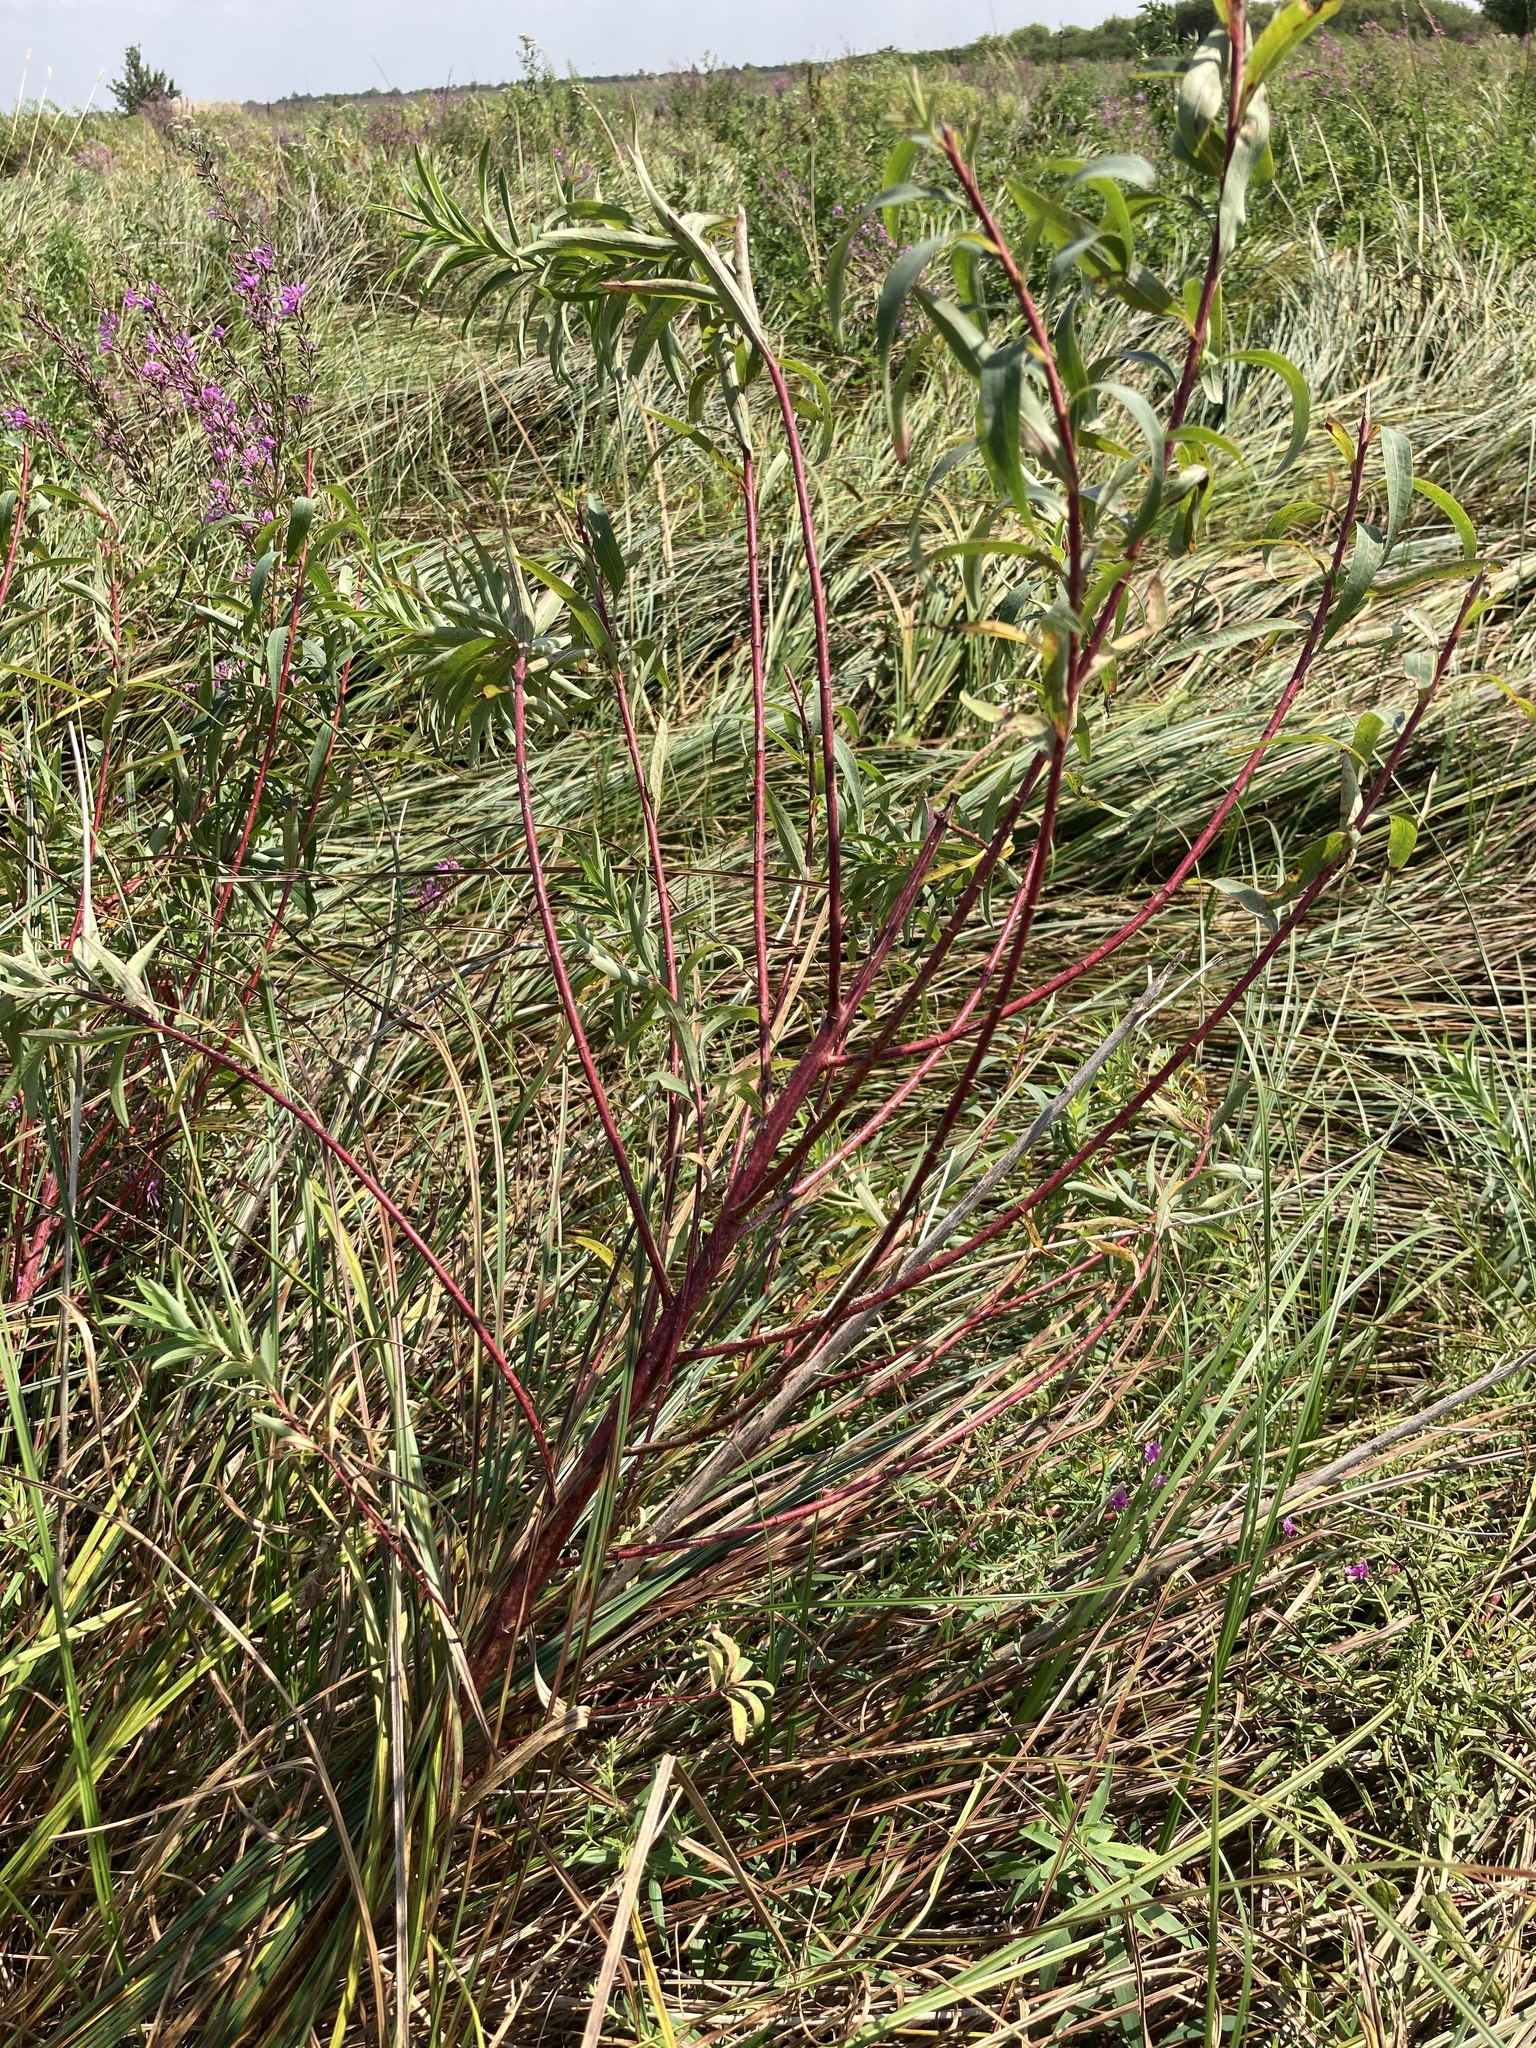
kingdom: Plantae
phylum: Tracheophyta
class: Magnoliopsida
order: Malpighiales
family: Euphorbiaceae
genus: Euphorbia
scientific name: Euphorbia palustris
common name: Marsh spurge
